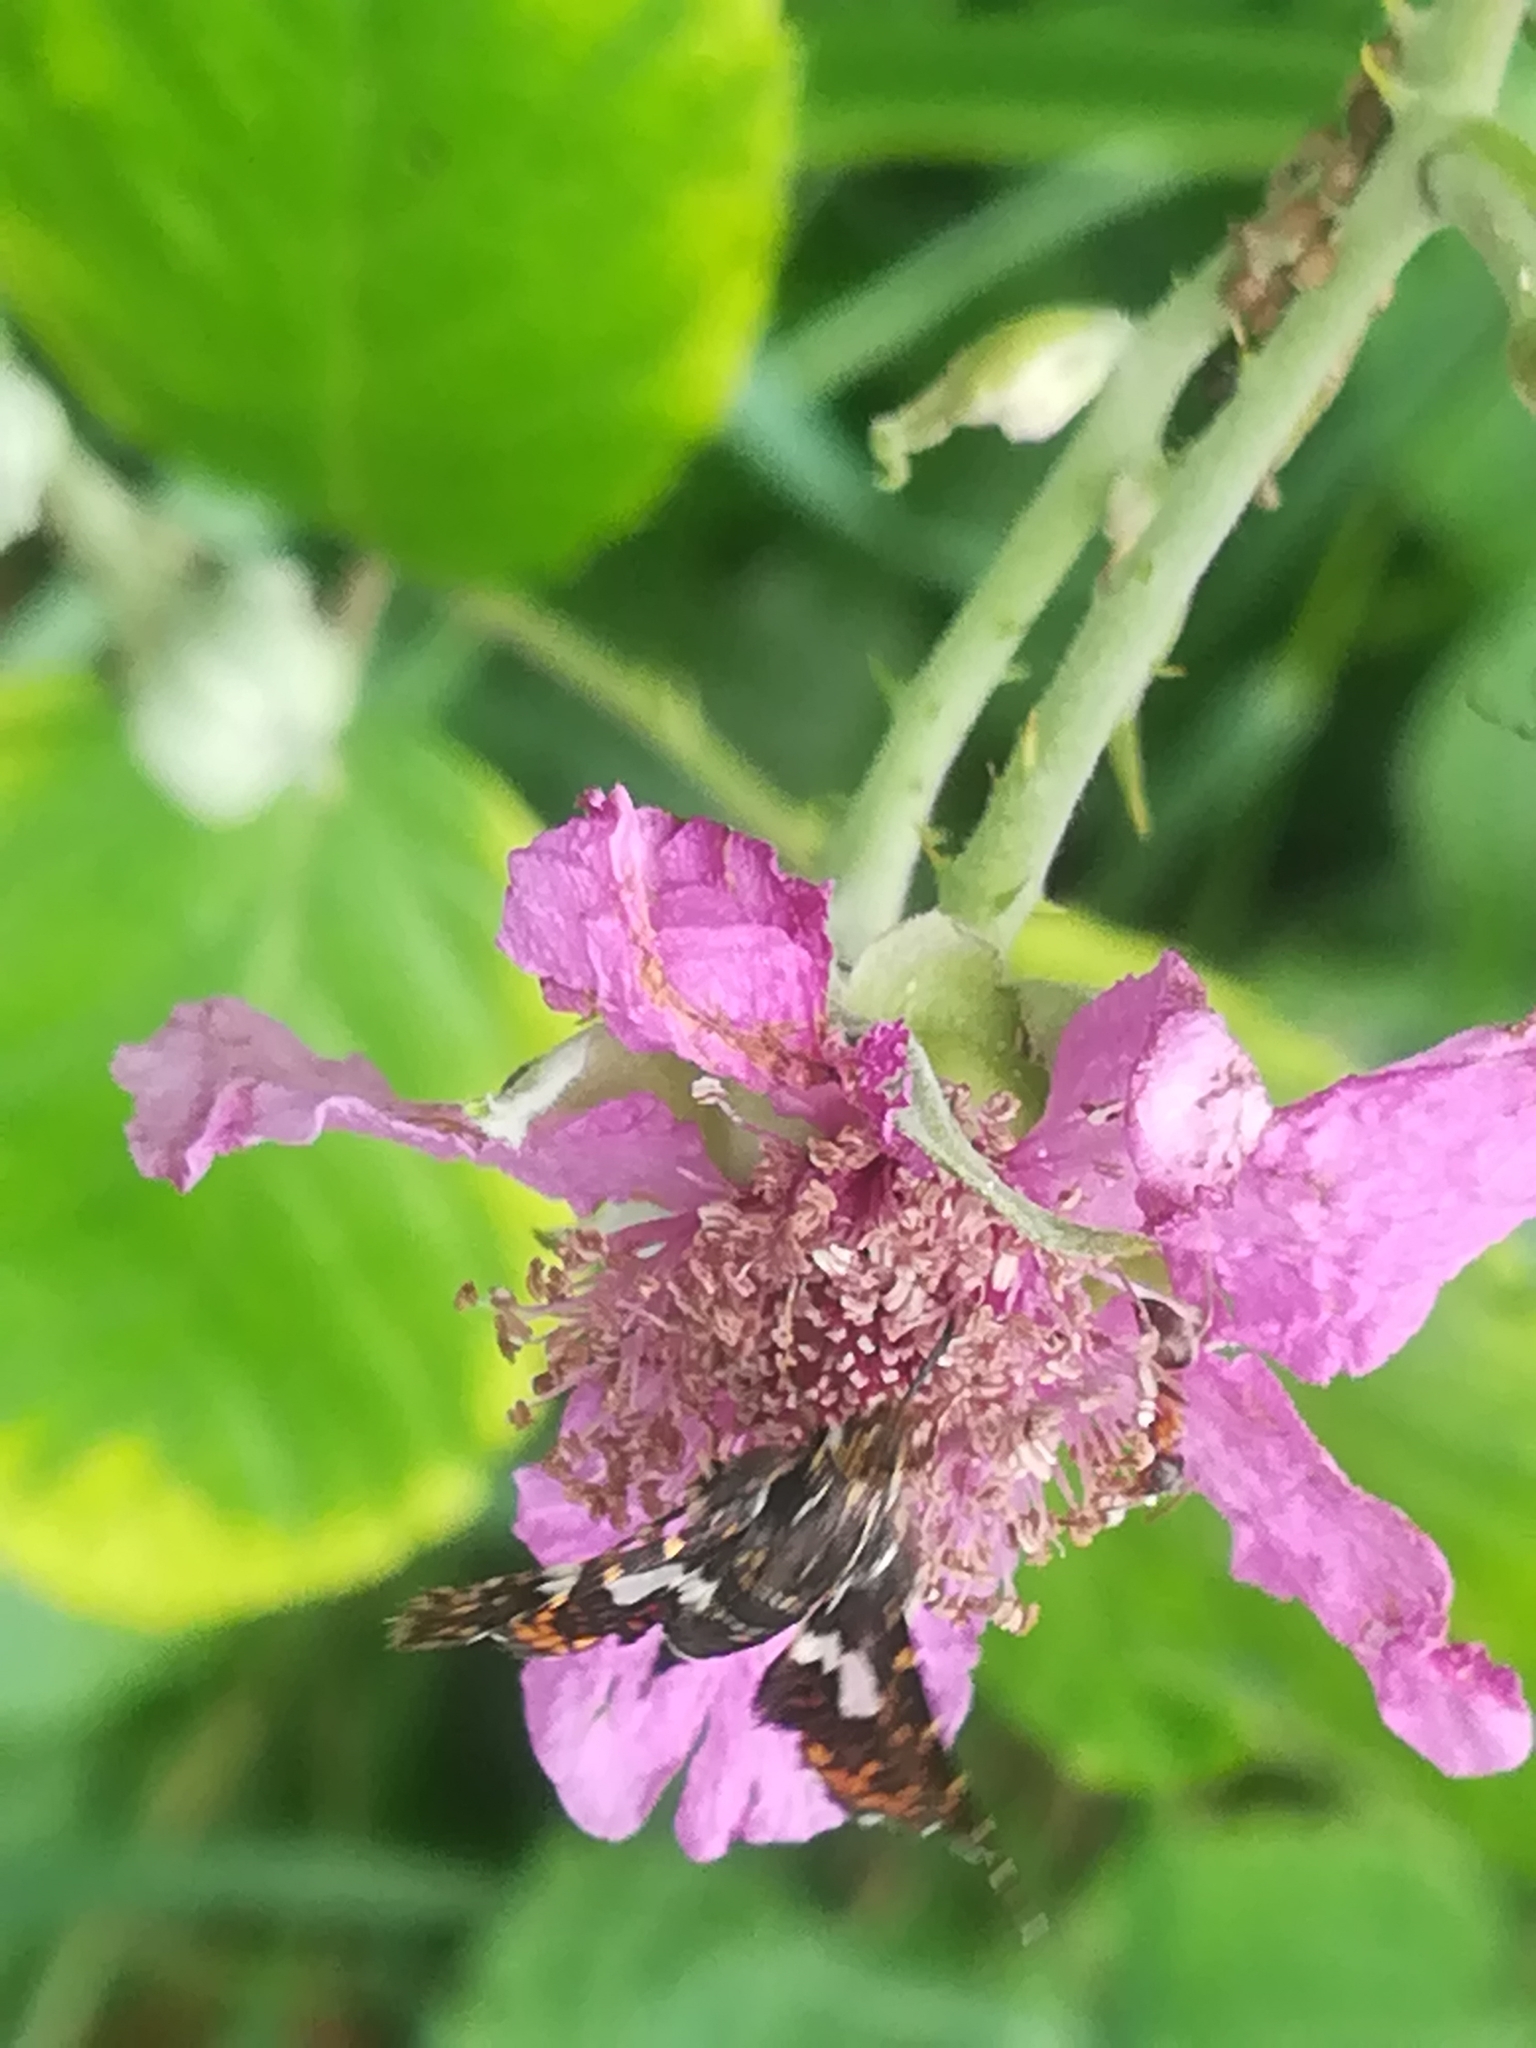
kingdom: Animalia
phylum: Arthropoda
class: Insecta
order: Lepidoptera
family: Thyrididae
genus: Thyris
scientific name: Thyris fenestrella
